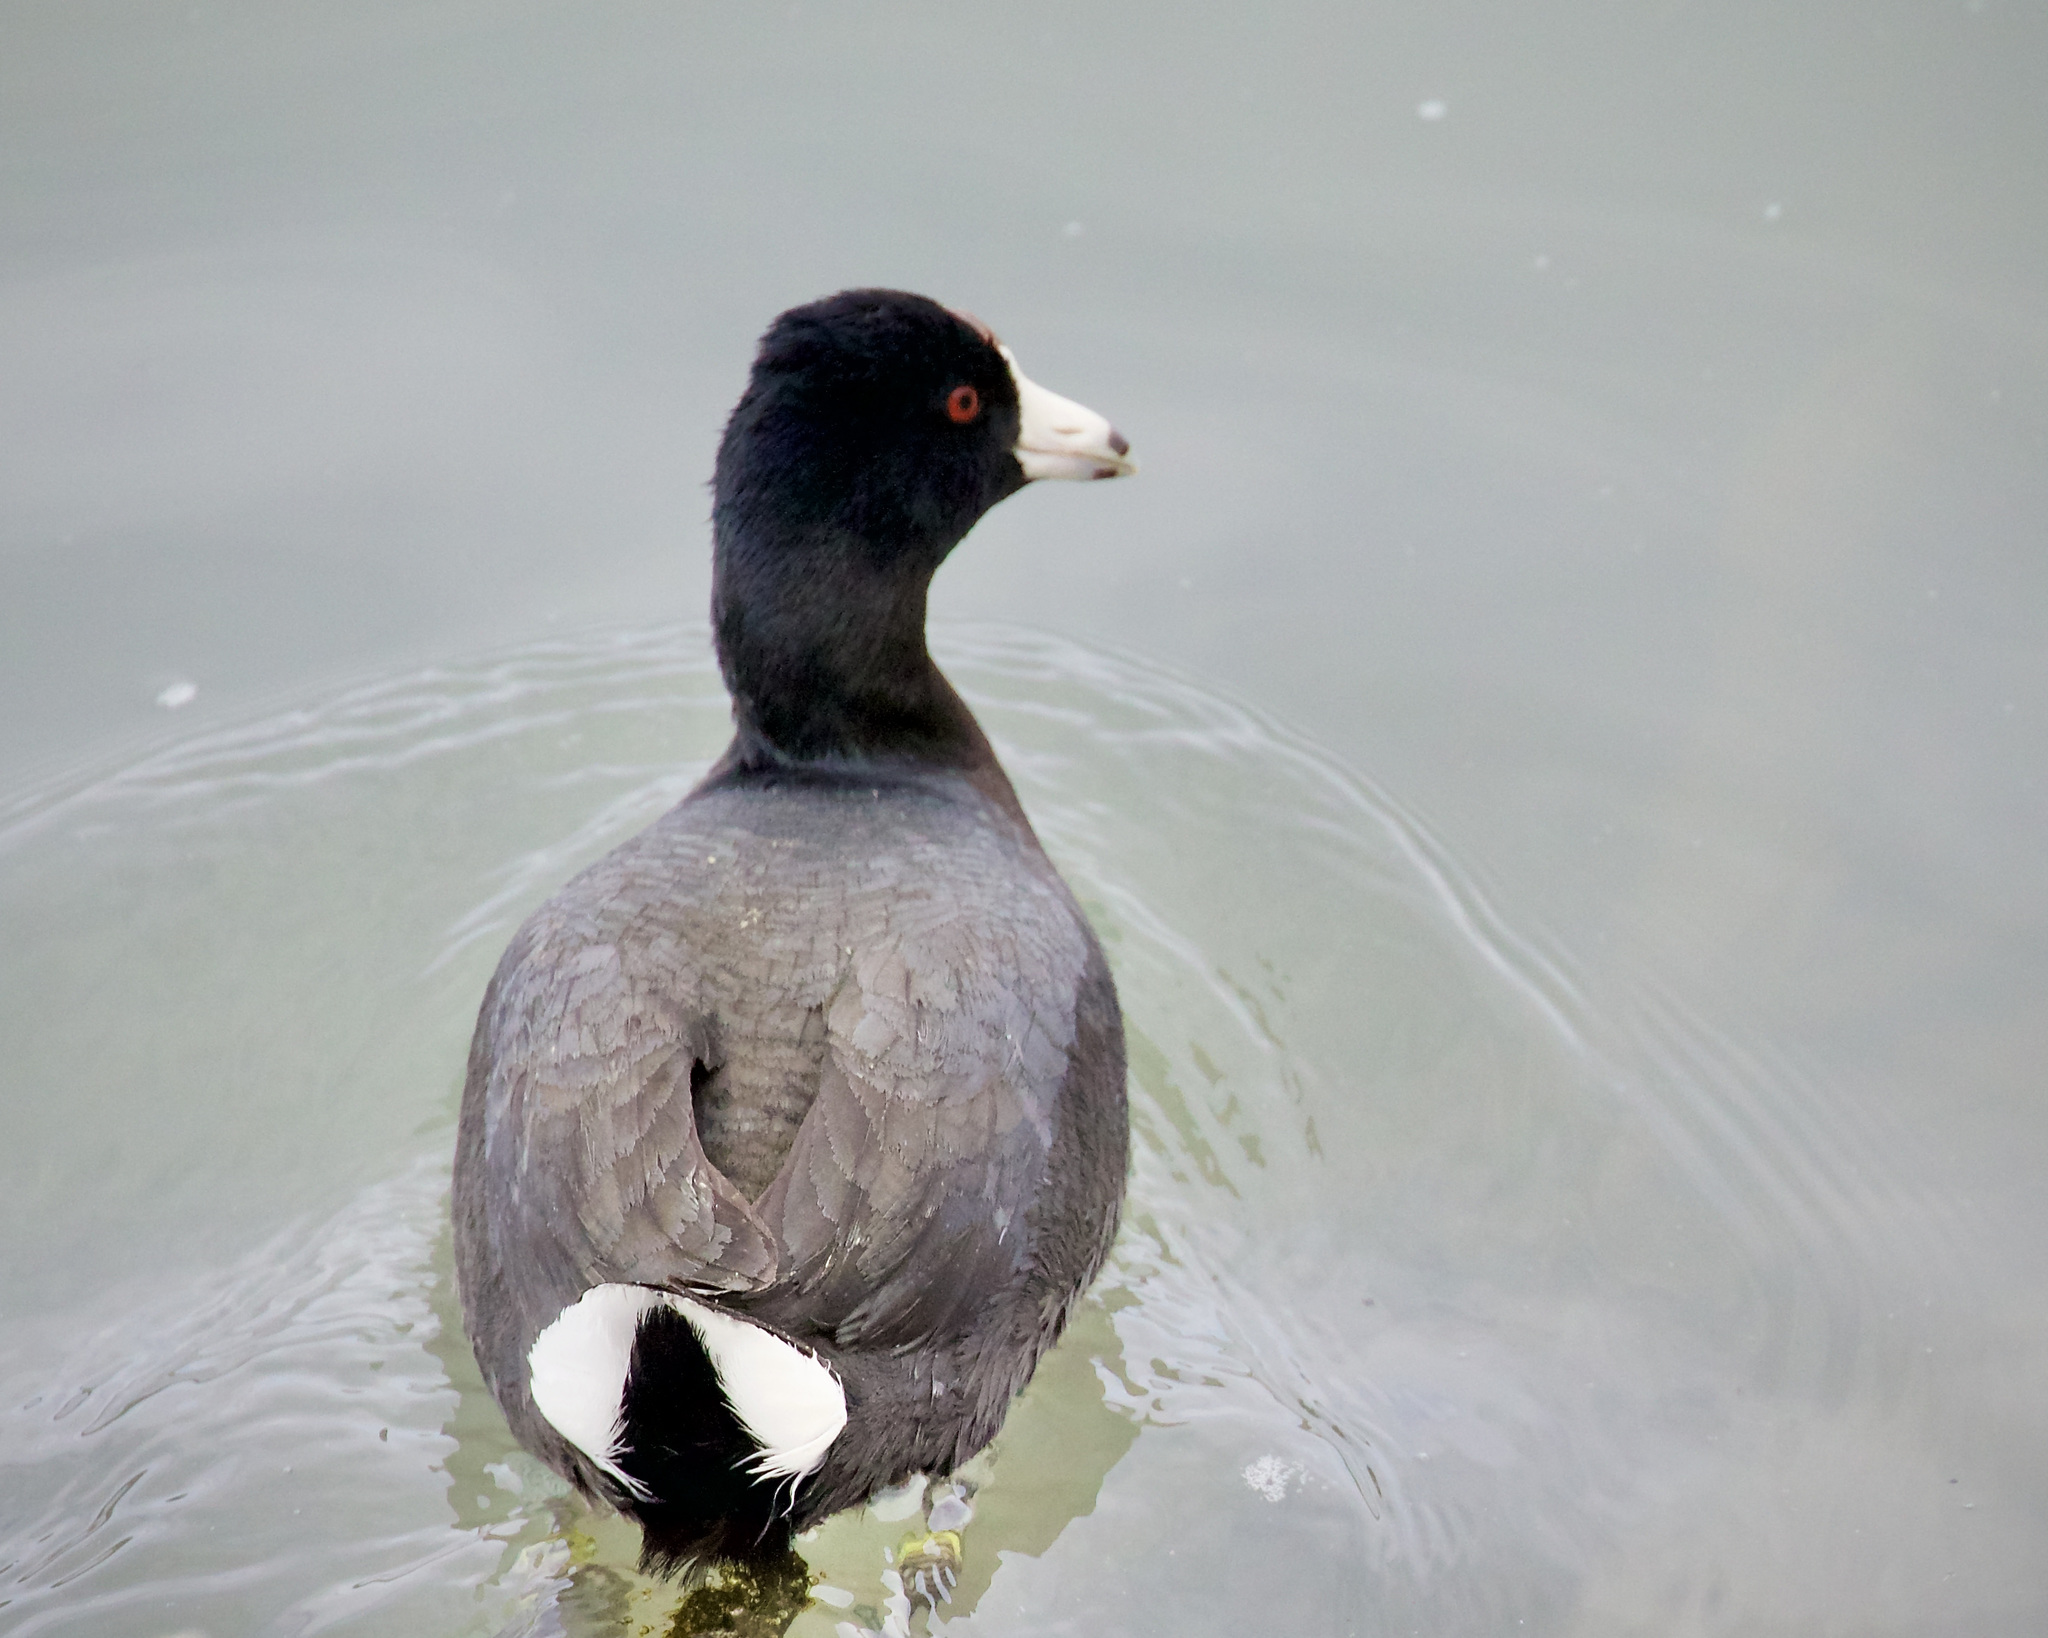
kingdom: Animalia
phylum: Chordata
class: Aves
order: Gruiformes
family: Rallidae
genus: Fulica
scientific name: Fulica americana
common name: American coot
